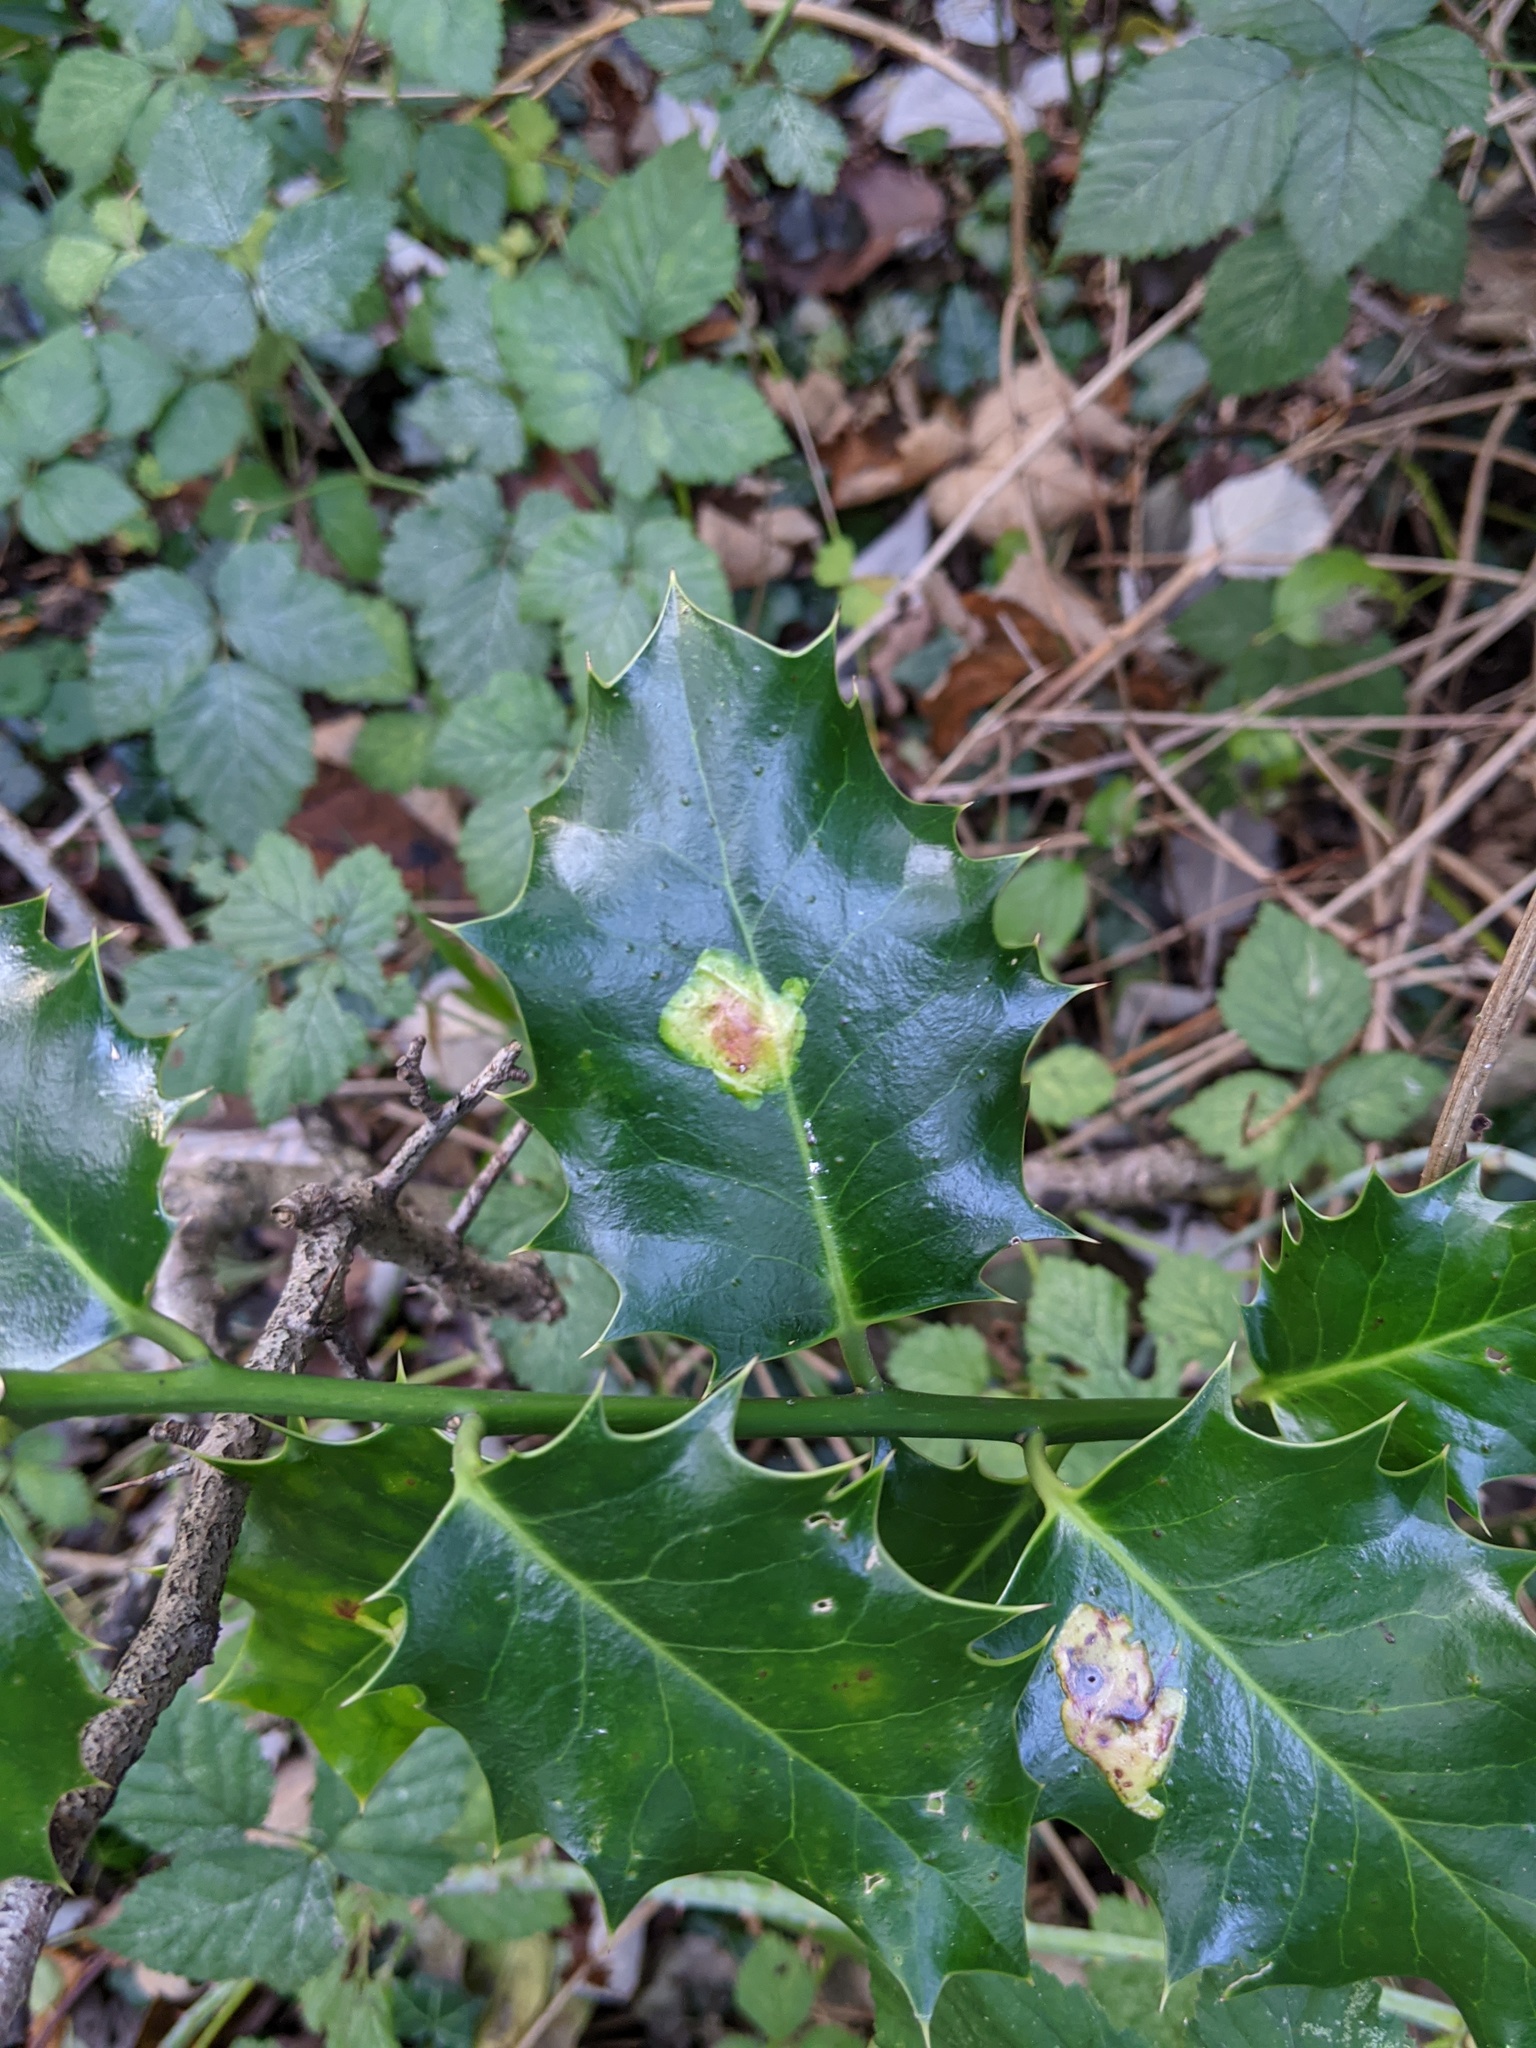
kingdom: Animalia
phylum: Arthropoda
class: Insecta
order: Diptera
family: Agromyzidae
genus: Phytomyza
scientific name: Phytomyza ilicis
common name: Holly leafminer
